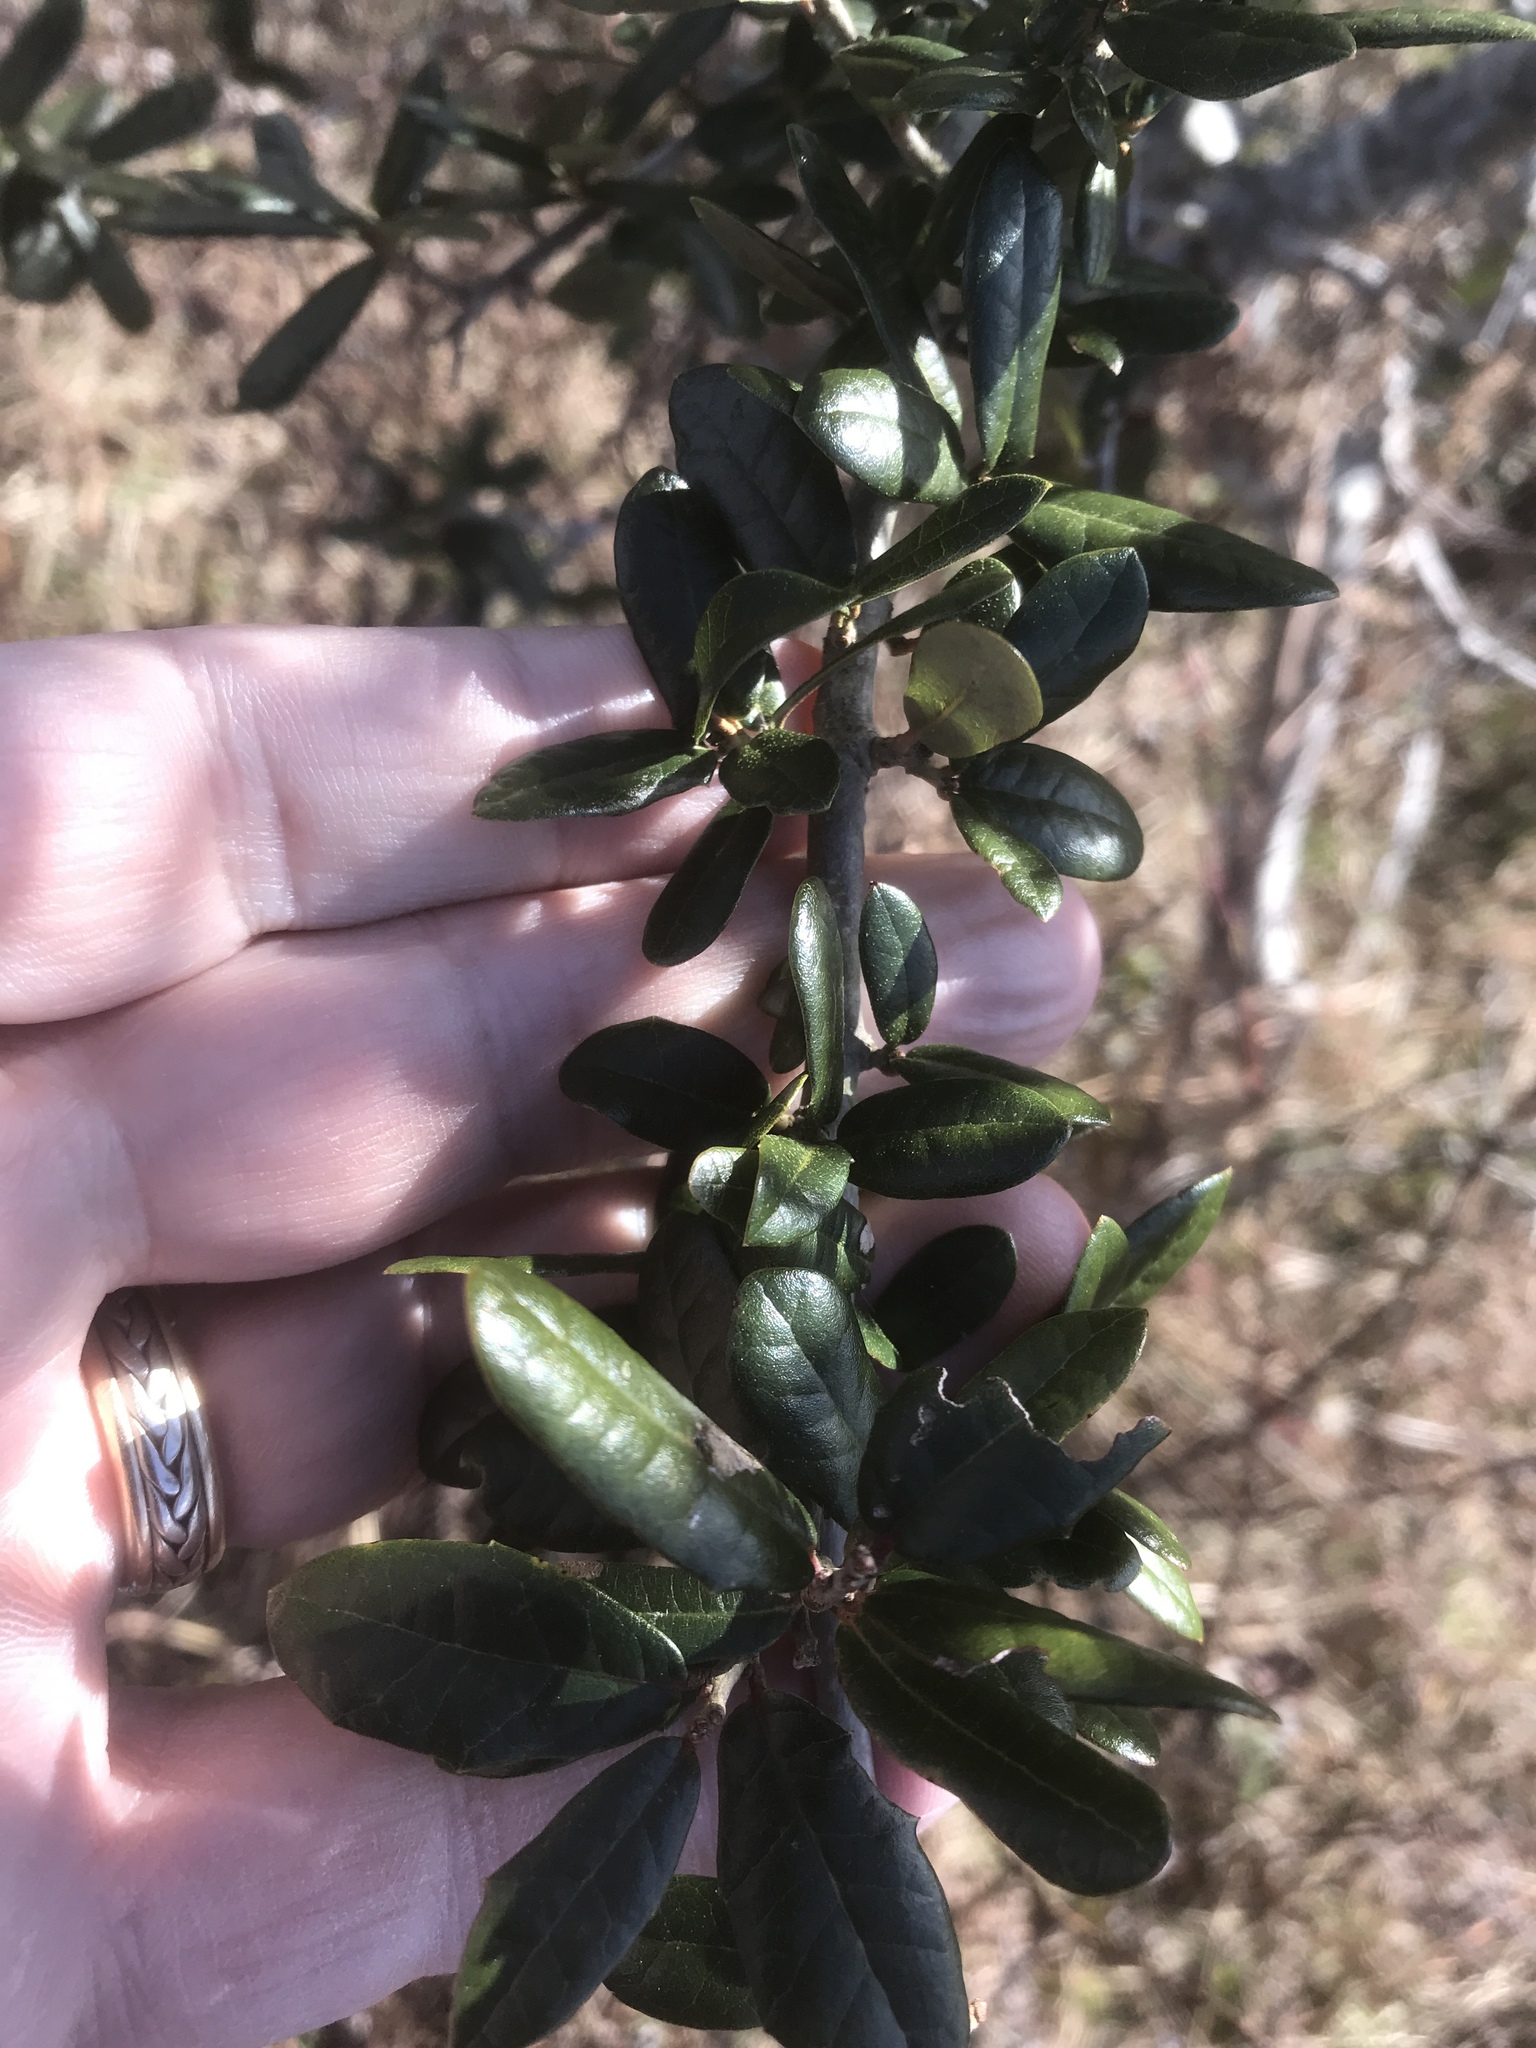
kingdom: Plantae
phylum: Tracheophyta
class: Magnoliopsida
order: Fagales
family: Fagaceae
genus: Quercus
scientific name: Quercus virginiana
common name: Southern live oak
